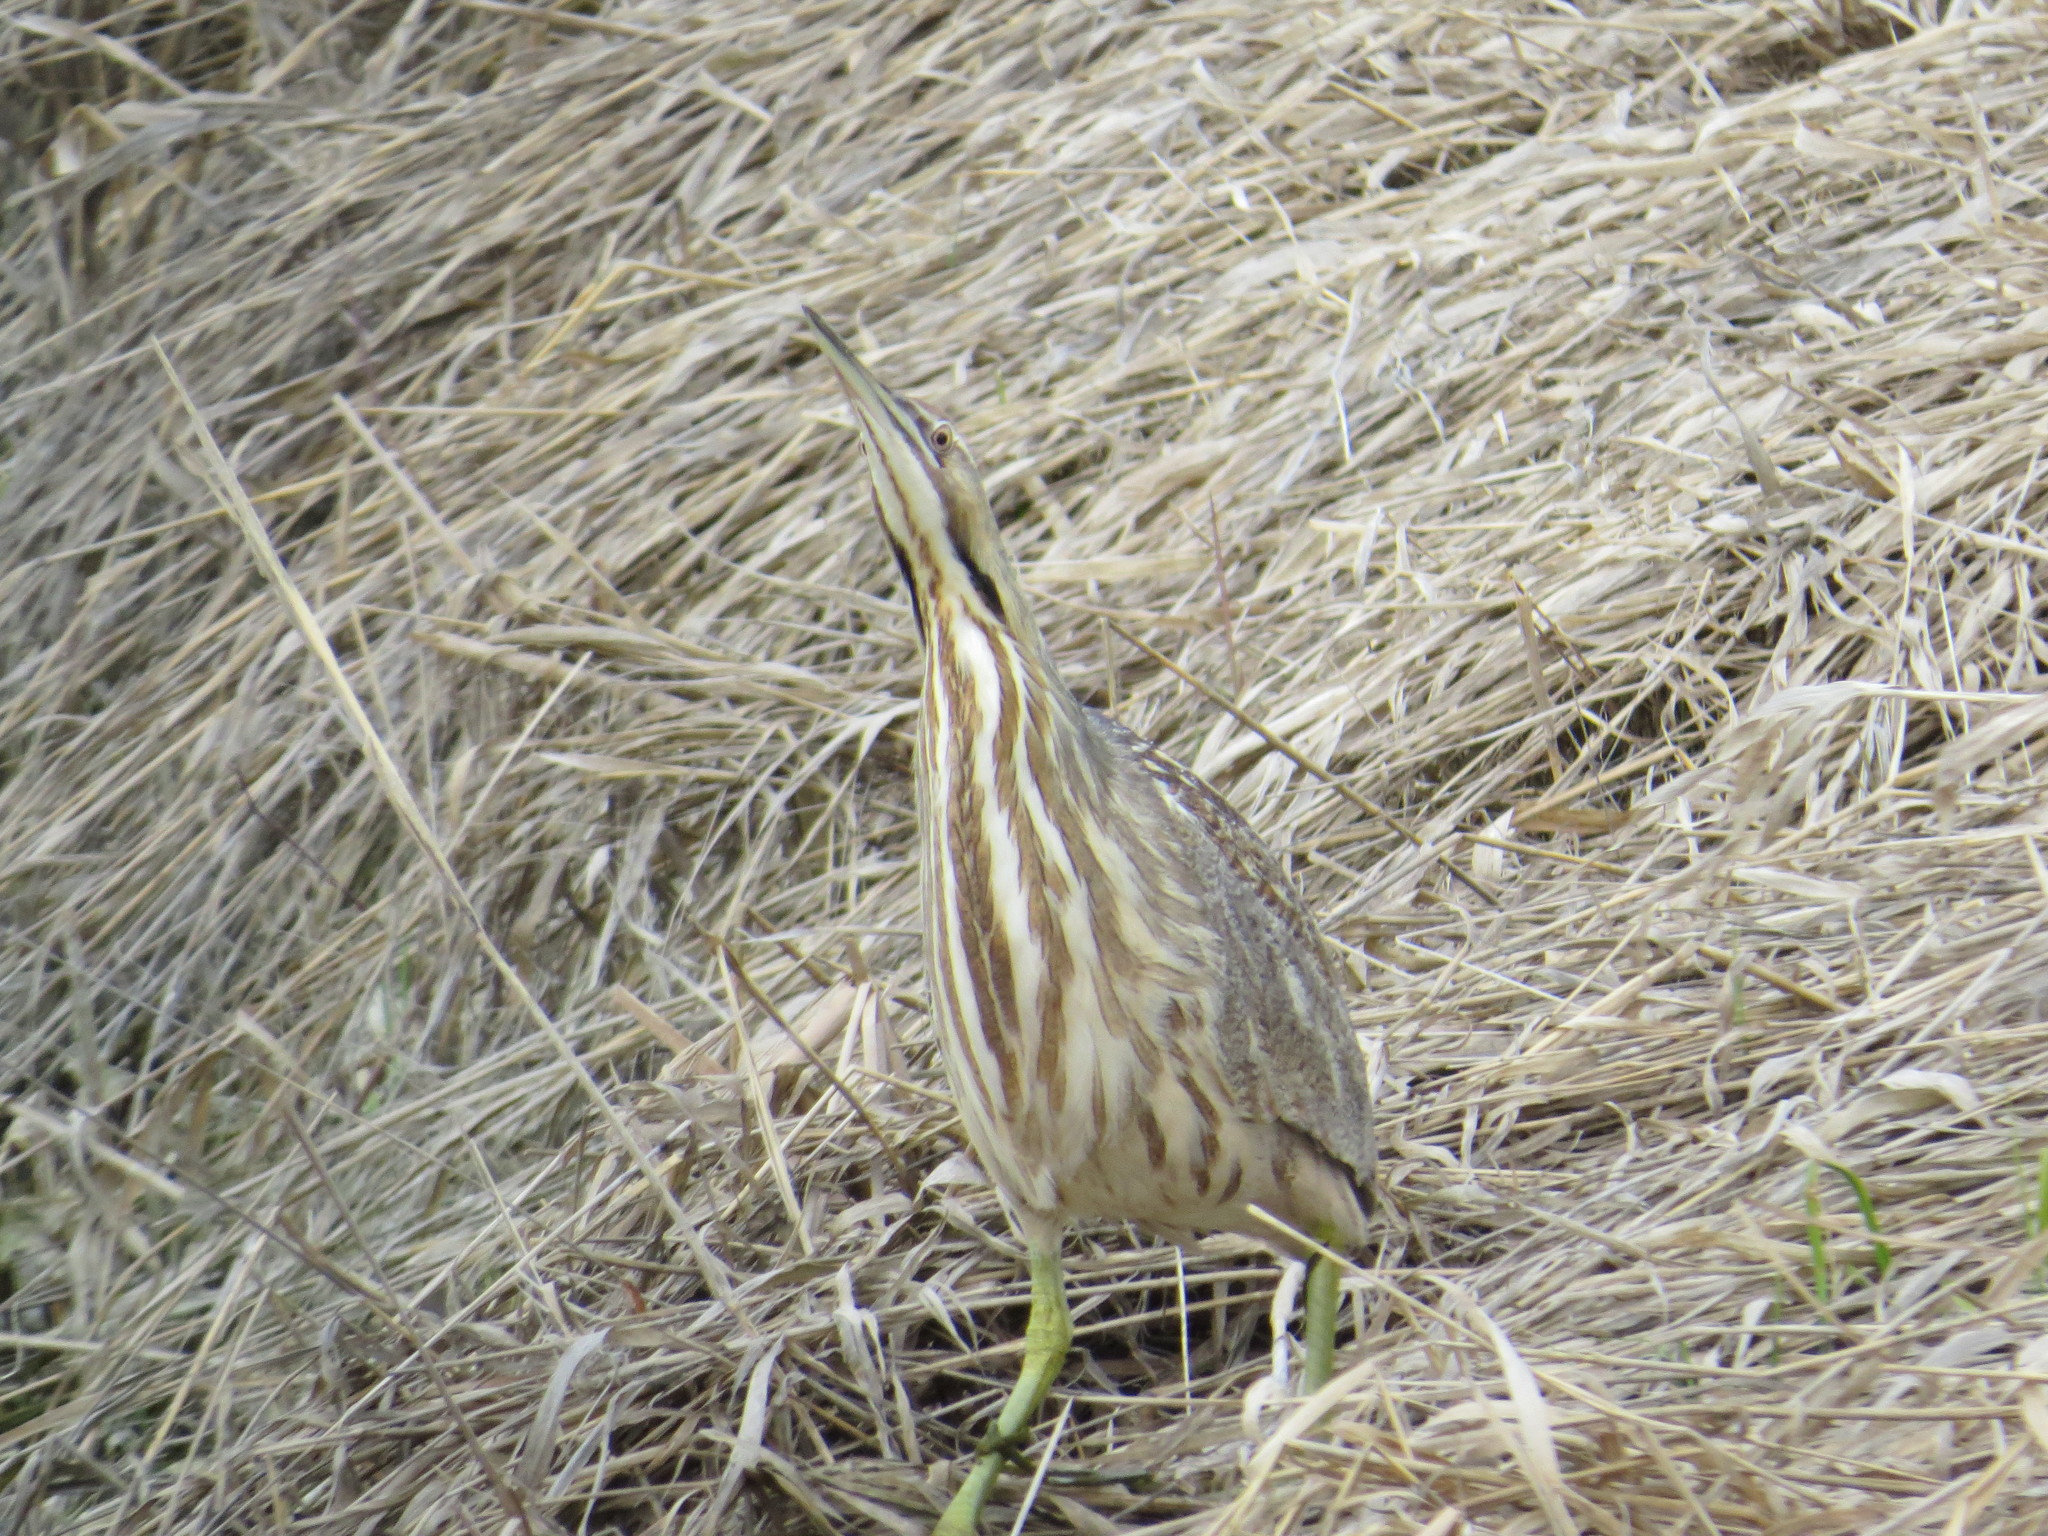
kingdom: Animalia
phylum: Chordata
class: Aves
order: Pelecaniformes
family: Ardeidae
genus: Botaurus
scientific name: Botaurus lentiginosus
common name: American bittern
